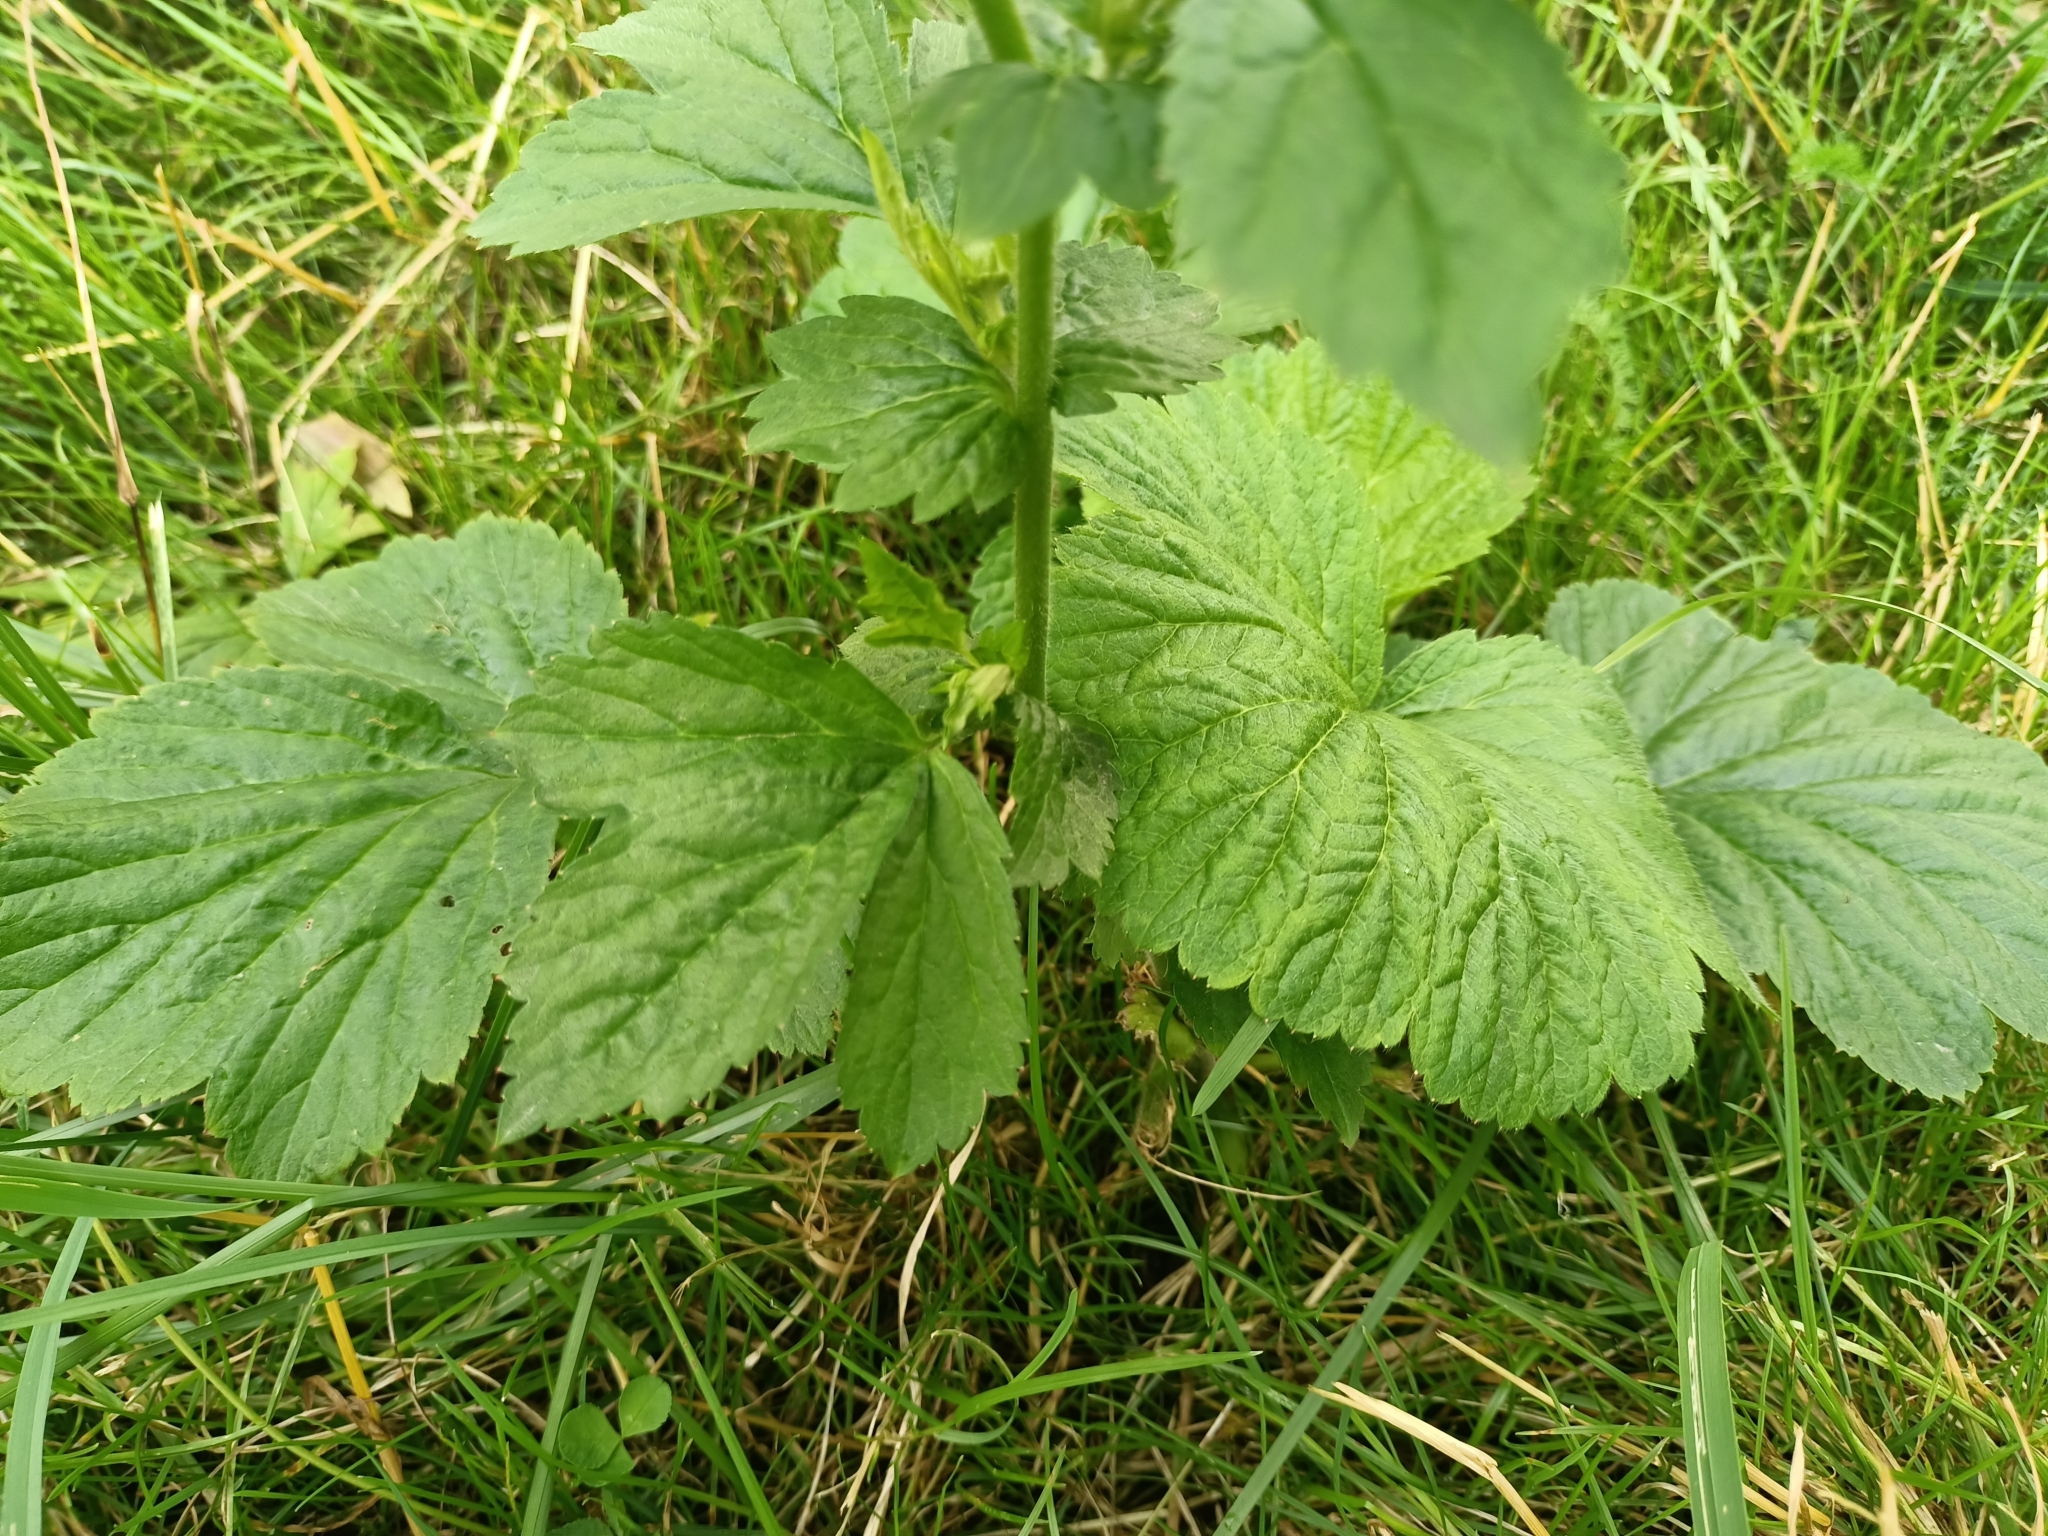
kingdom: Plantae
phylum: Tracheophyta
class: Magnoliopsida
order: Rosales
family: Rosaceae
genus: Geum
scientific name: Geum aleppicum
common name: Yellow avens
